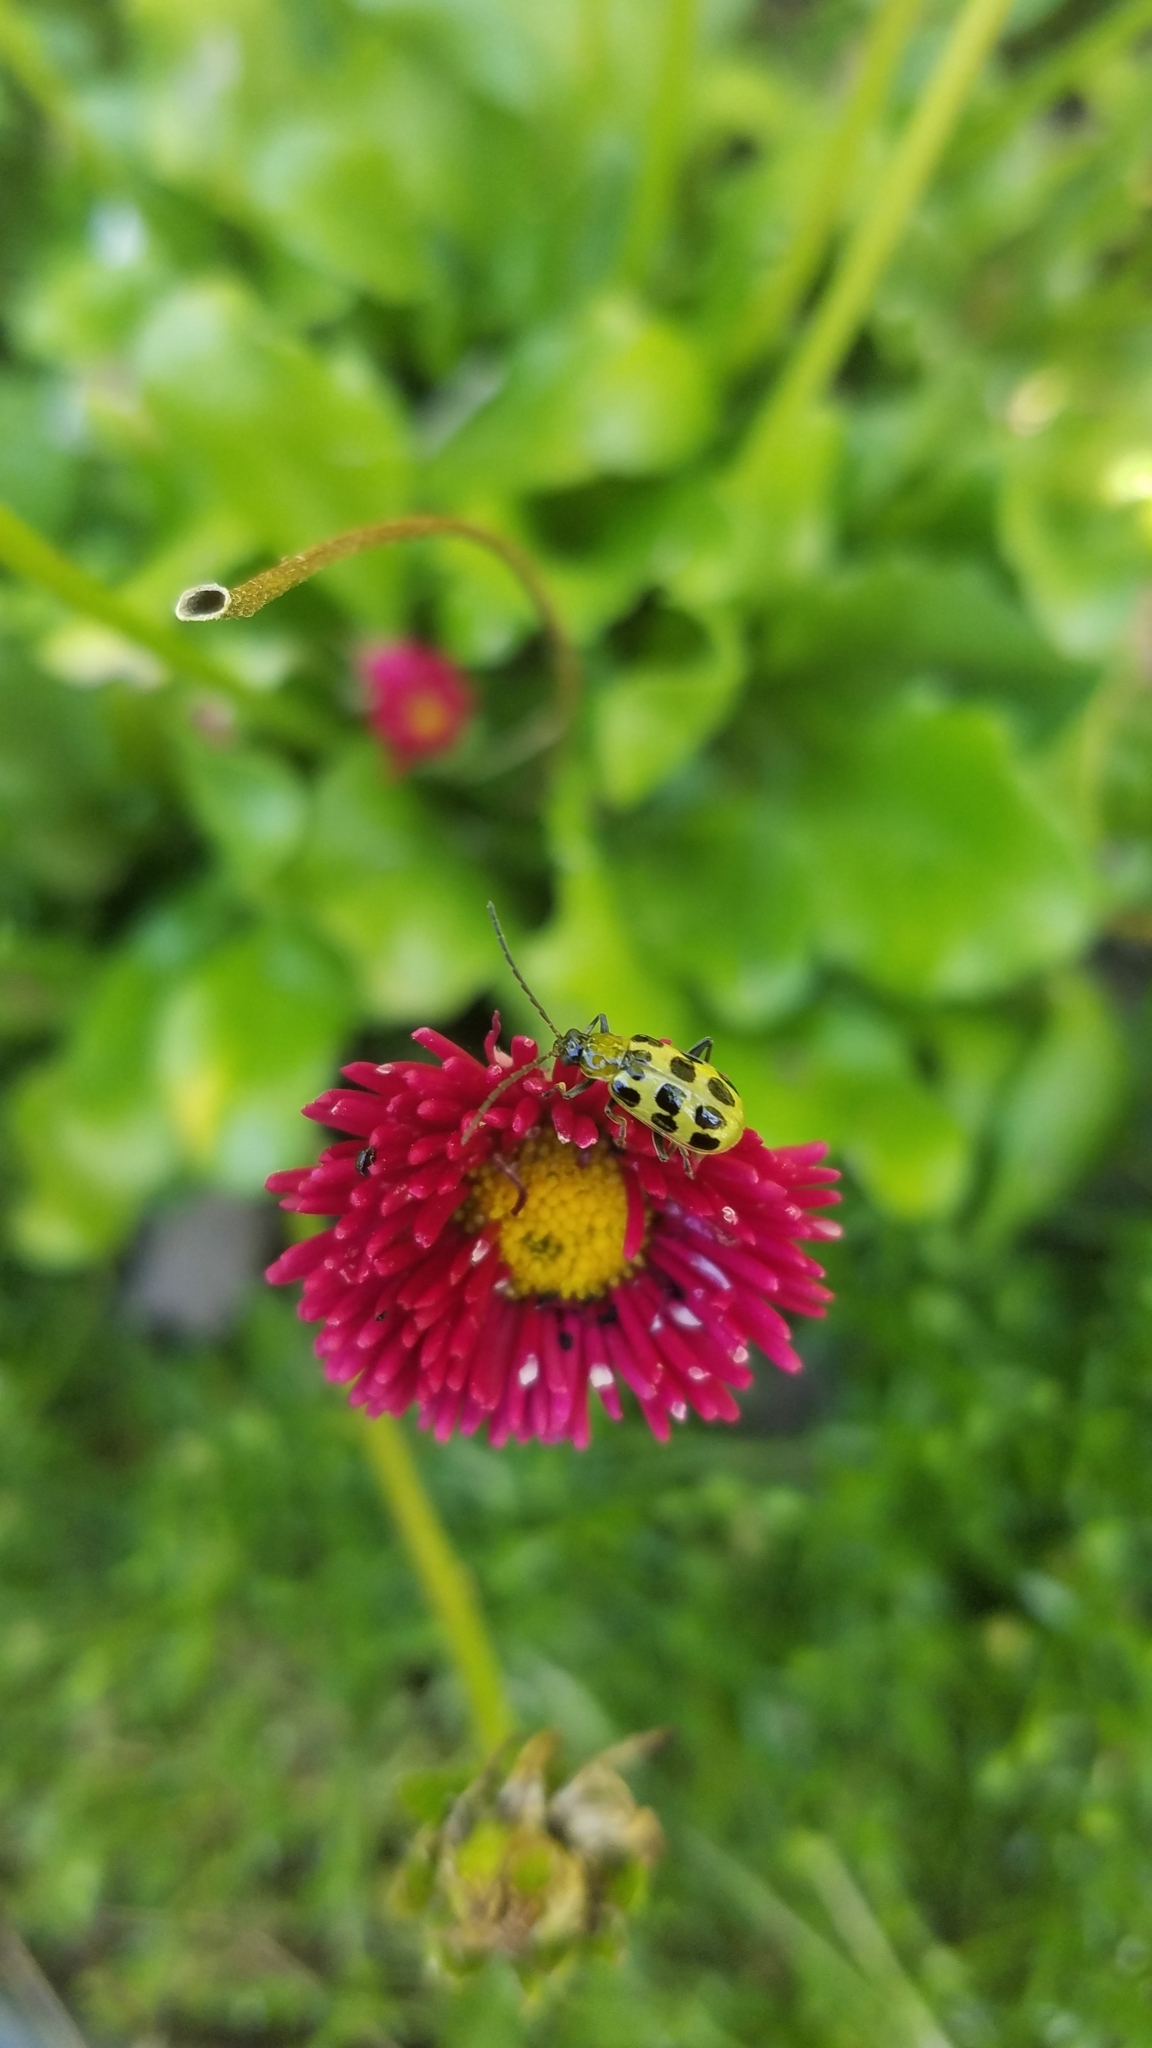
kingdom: Animalia
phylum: Arthropoda
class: Insecta
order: Coleoptera
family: Chrysomelidae
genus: Diabrotica
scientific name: Diabrotica undecimpunctata
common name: Spotted cucumber beetle
